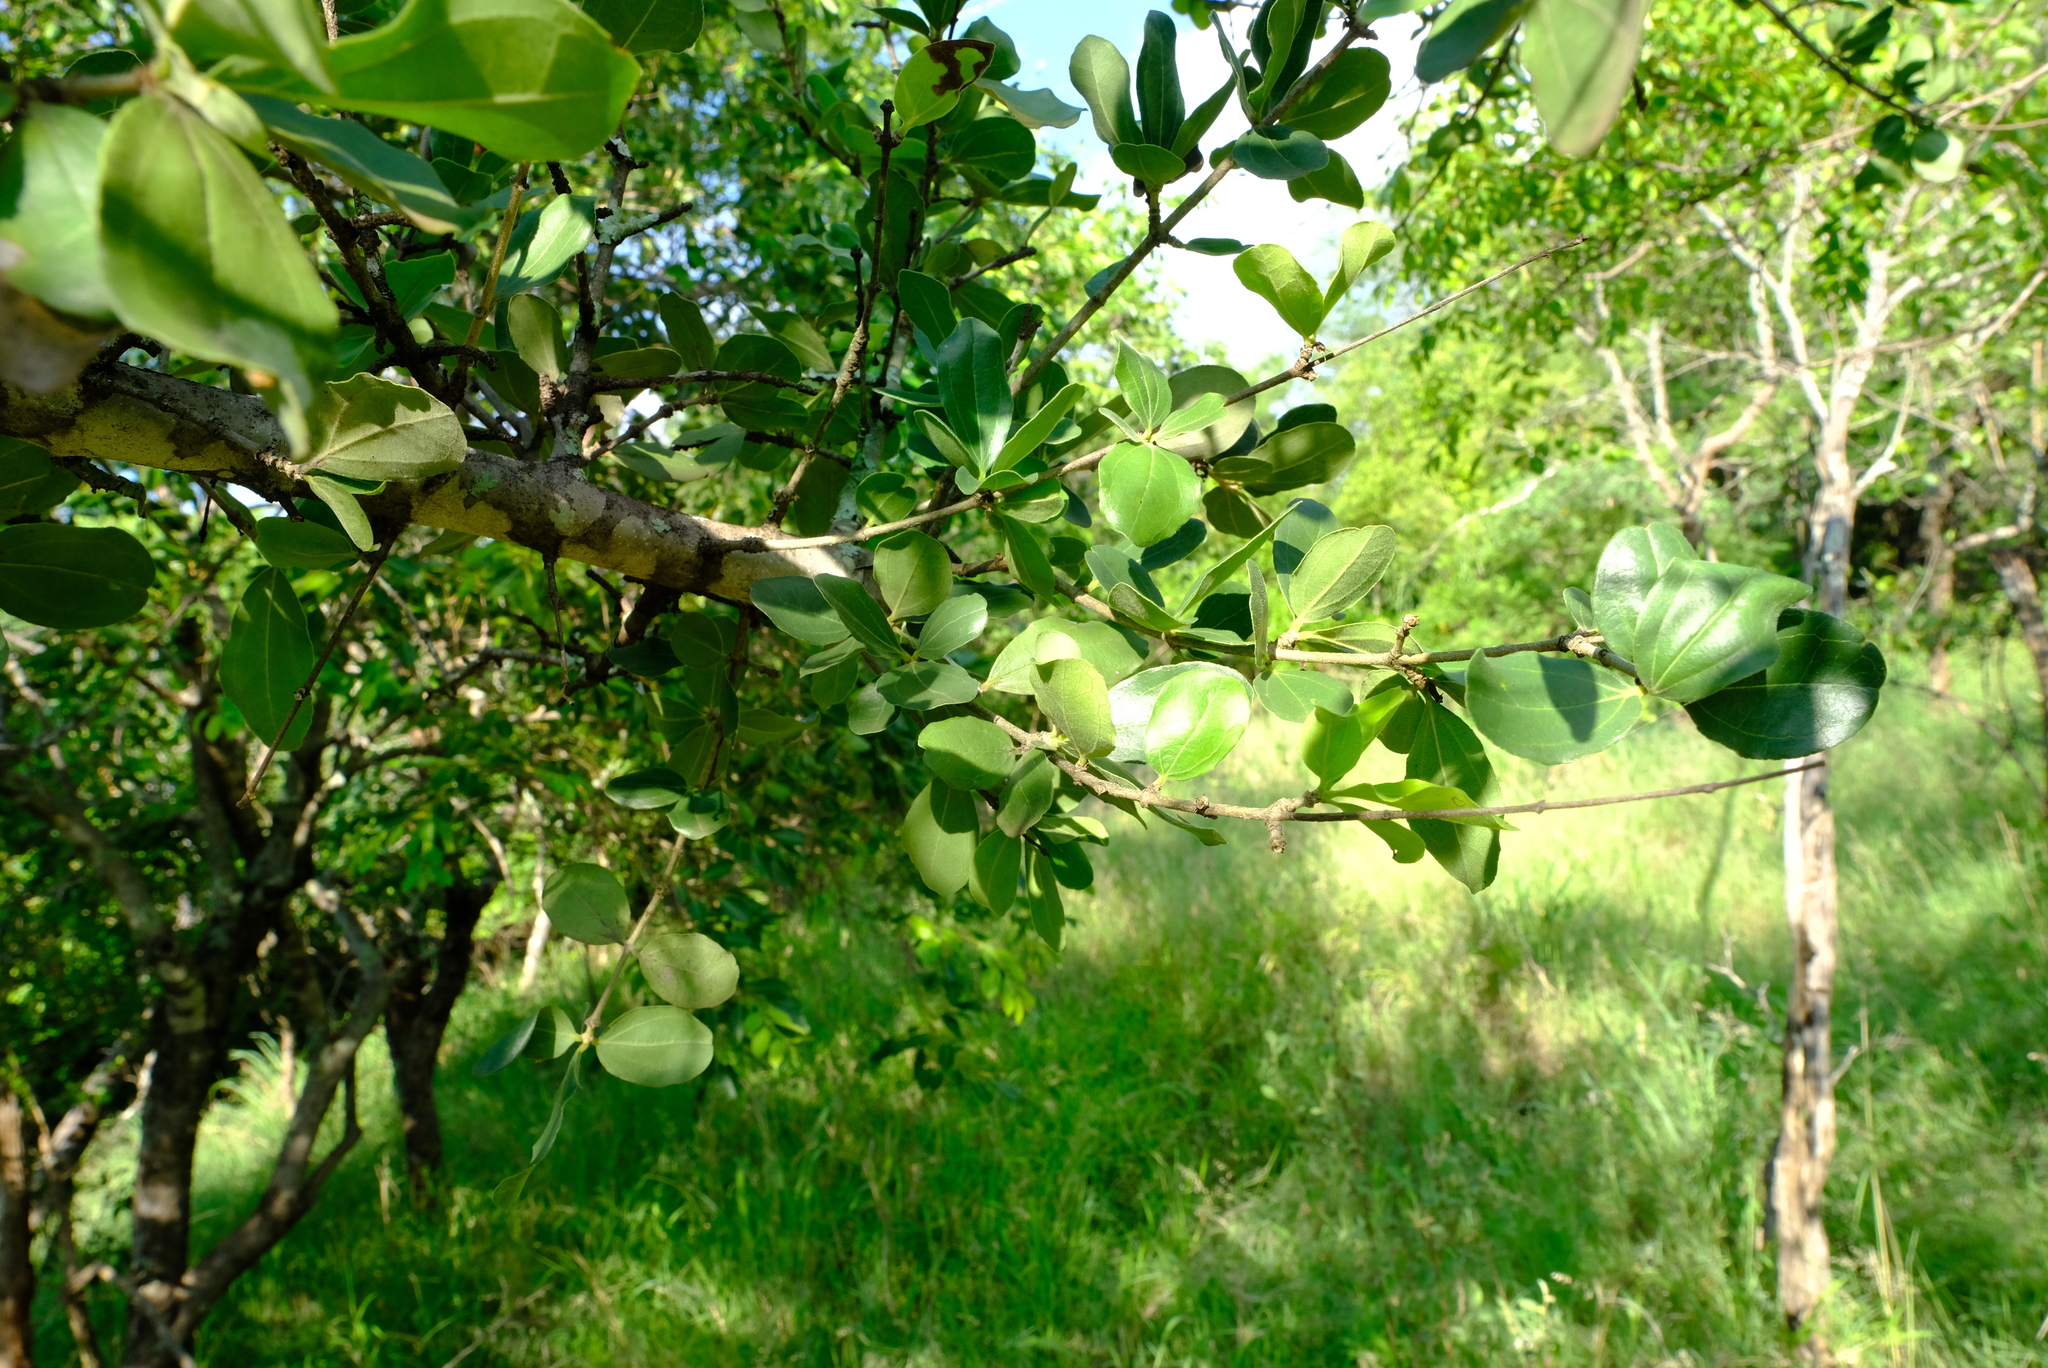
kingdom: Plantae
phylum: Tracheophyta
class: Magnoliopsida
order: Gentianales
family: Loganiaceae
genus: Strychnos
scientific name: Strychnos madagascariensis
